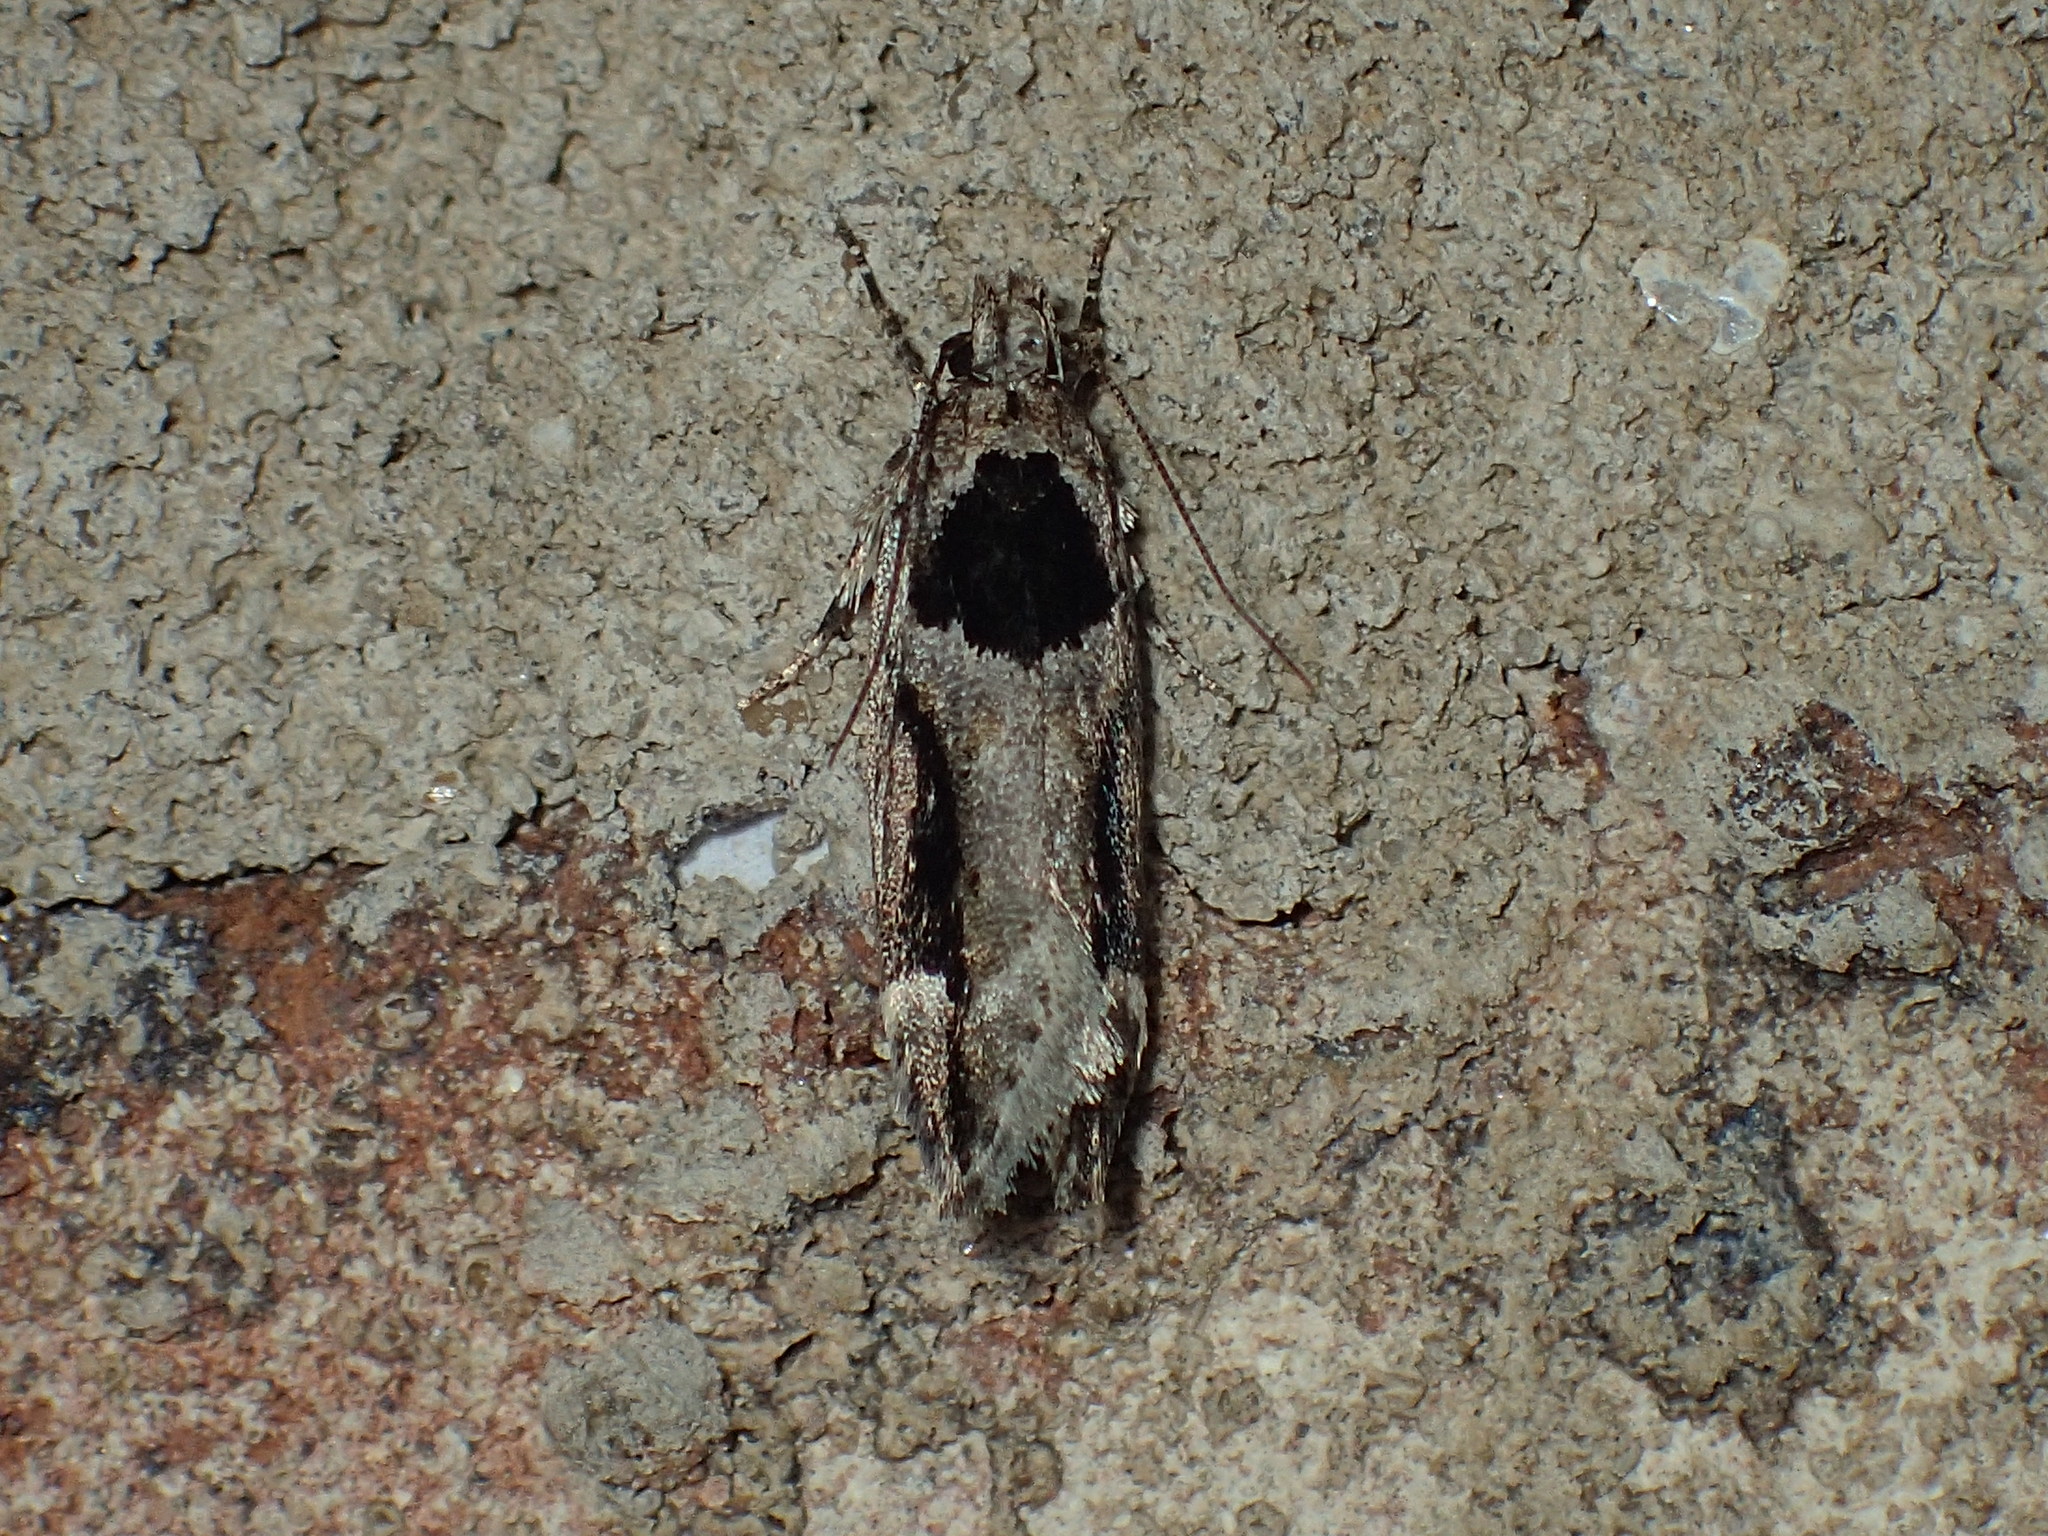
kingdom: Animalia
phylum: Arthropoda
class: Insecta
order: Lepidoptera
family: Gelechiidae
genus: Pseudochelaria
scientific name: Pseudochelaria walsinghami
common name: Walsingham's moth
